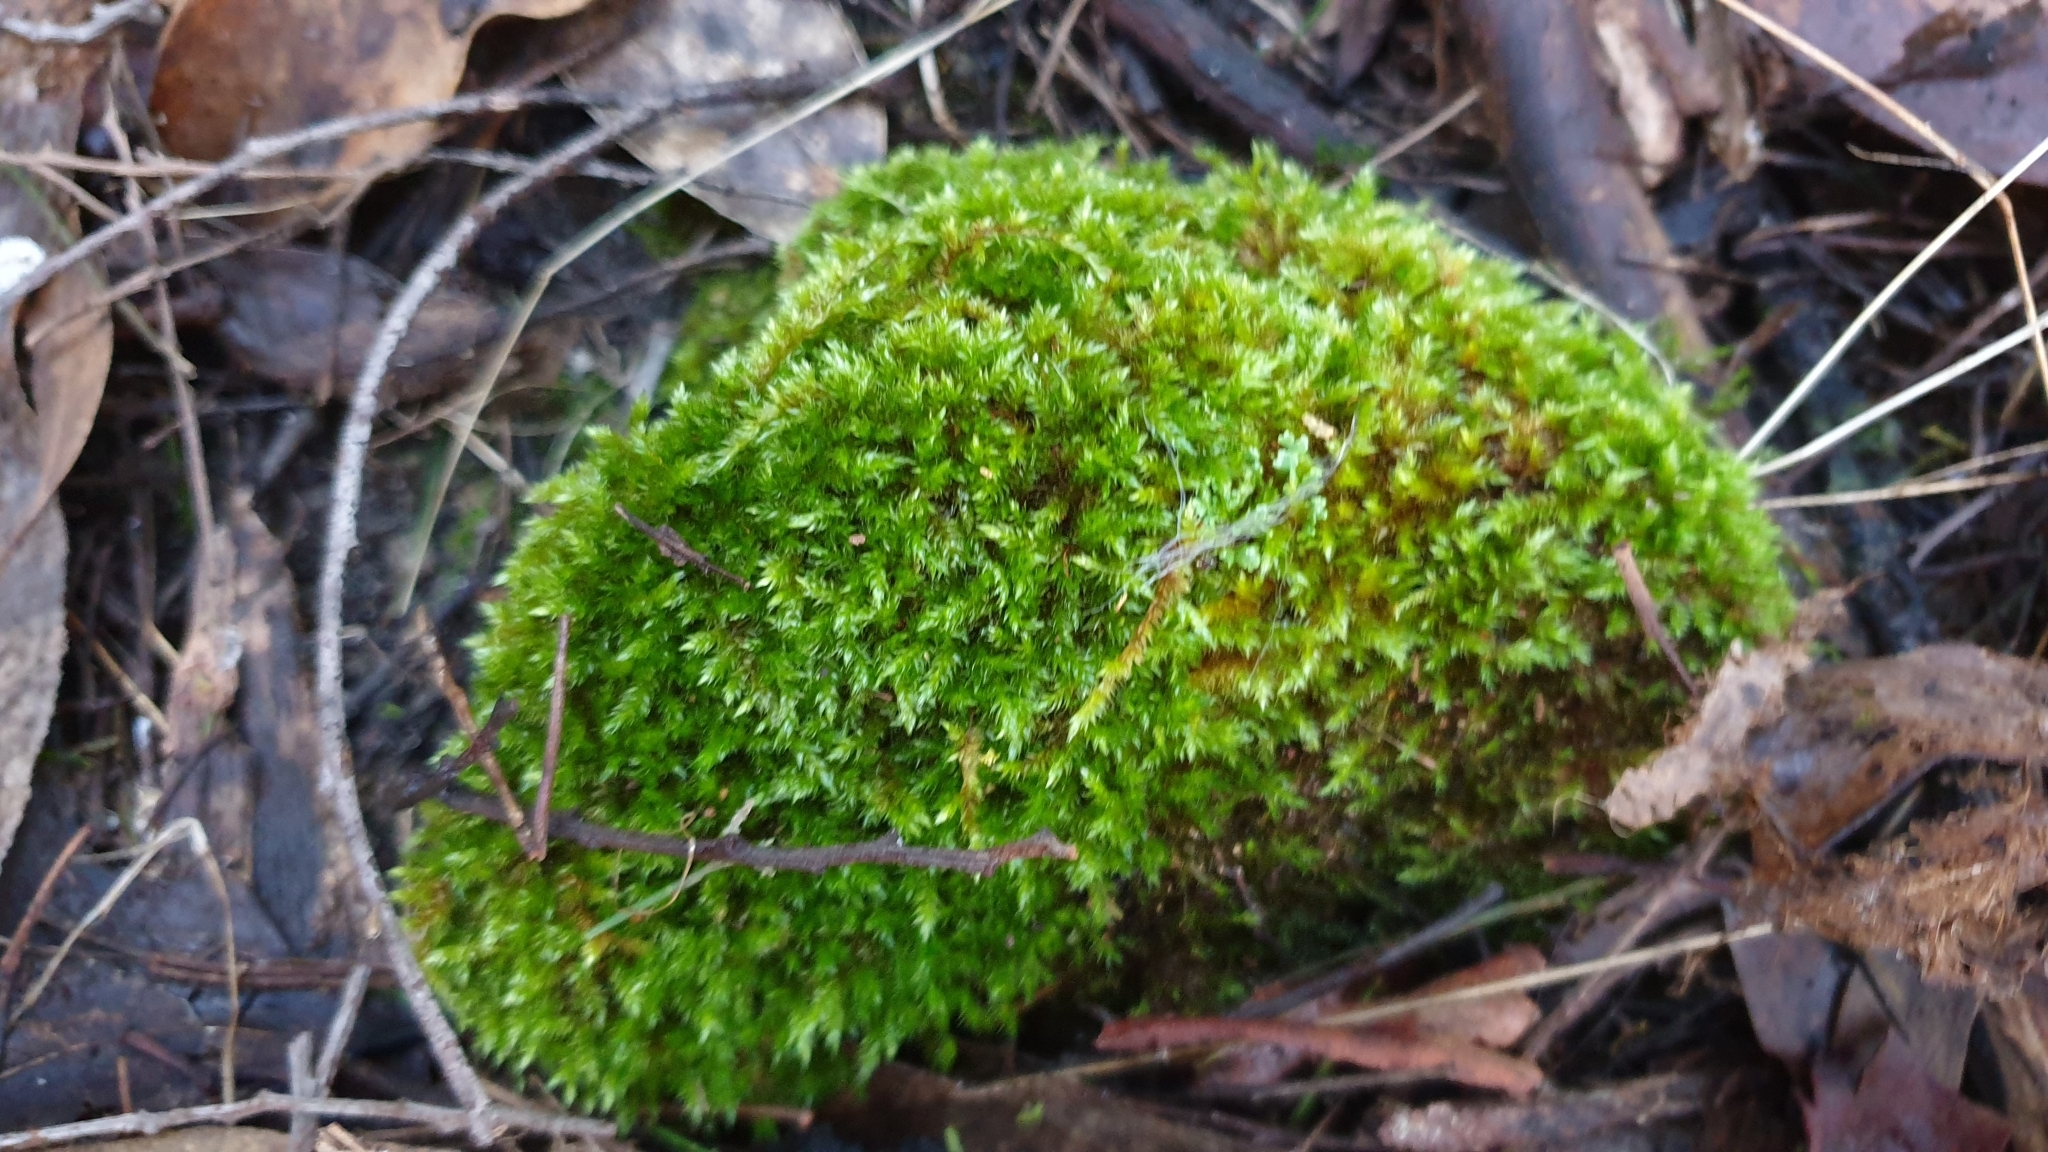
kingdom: Plantae
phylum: Bryophyta
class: Bryopsida
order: Hypnales
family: Sematophyllaceae
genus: Sematophyllum
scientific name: Sematophyllum homomallum
